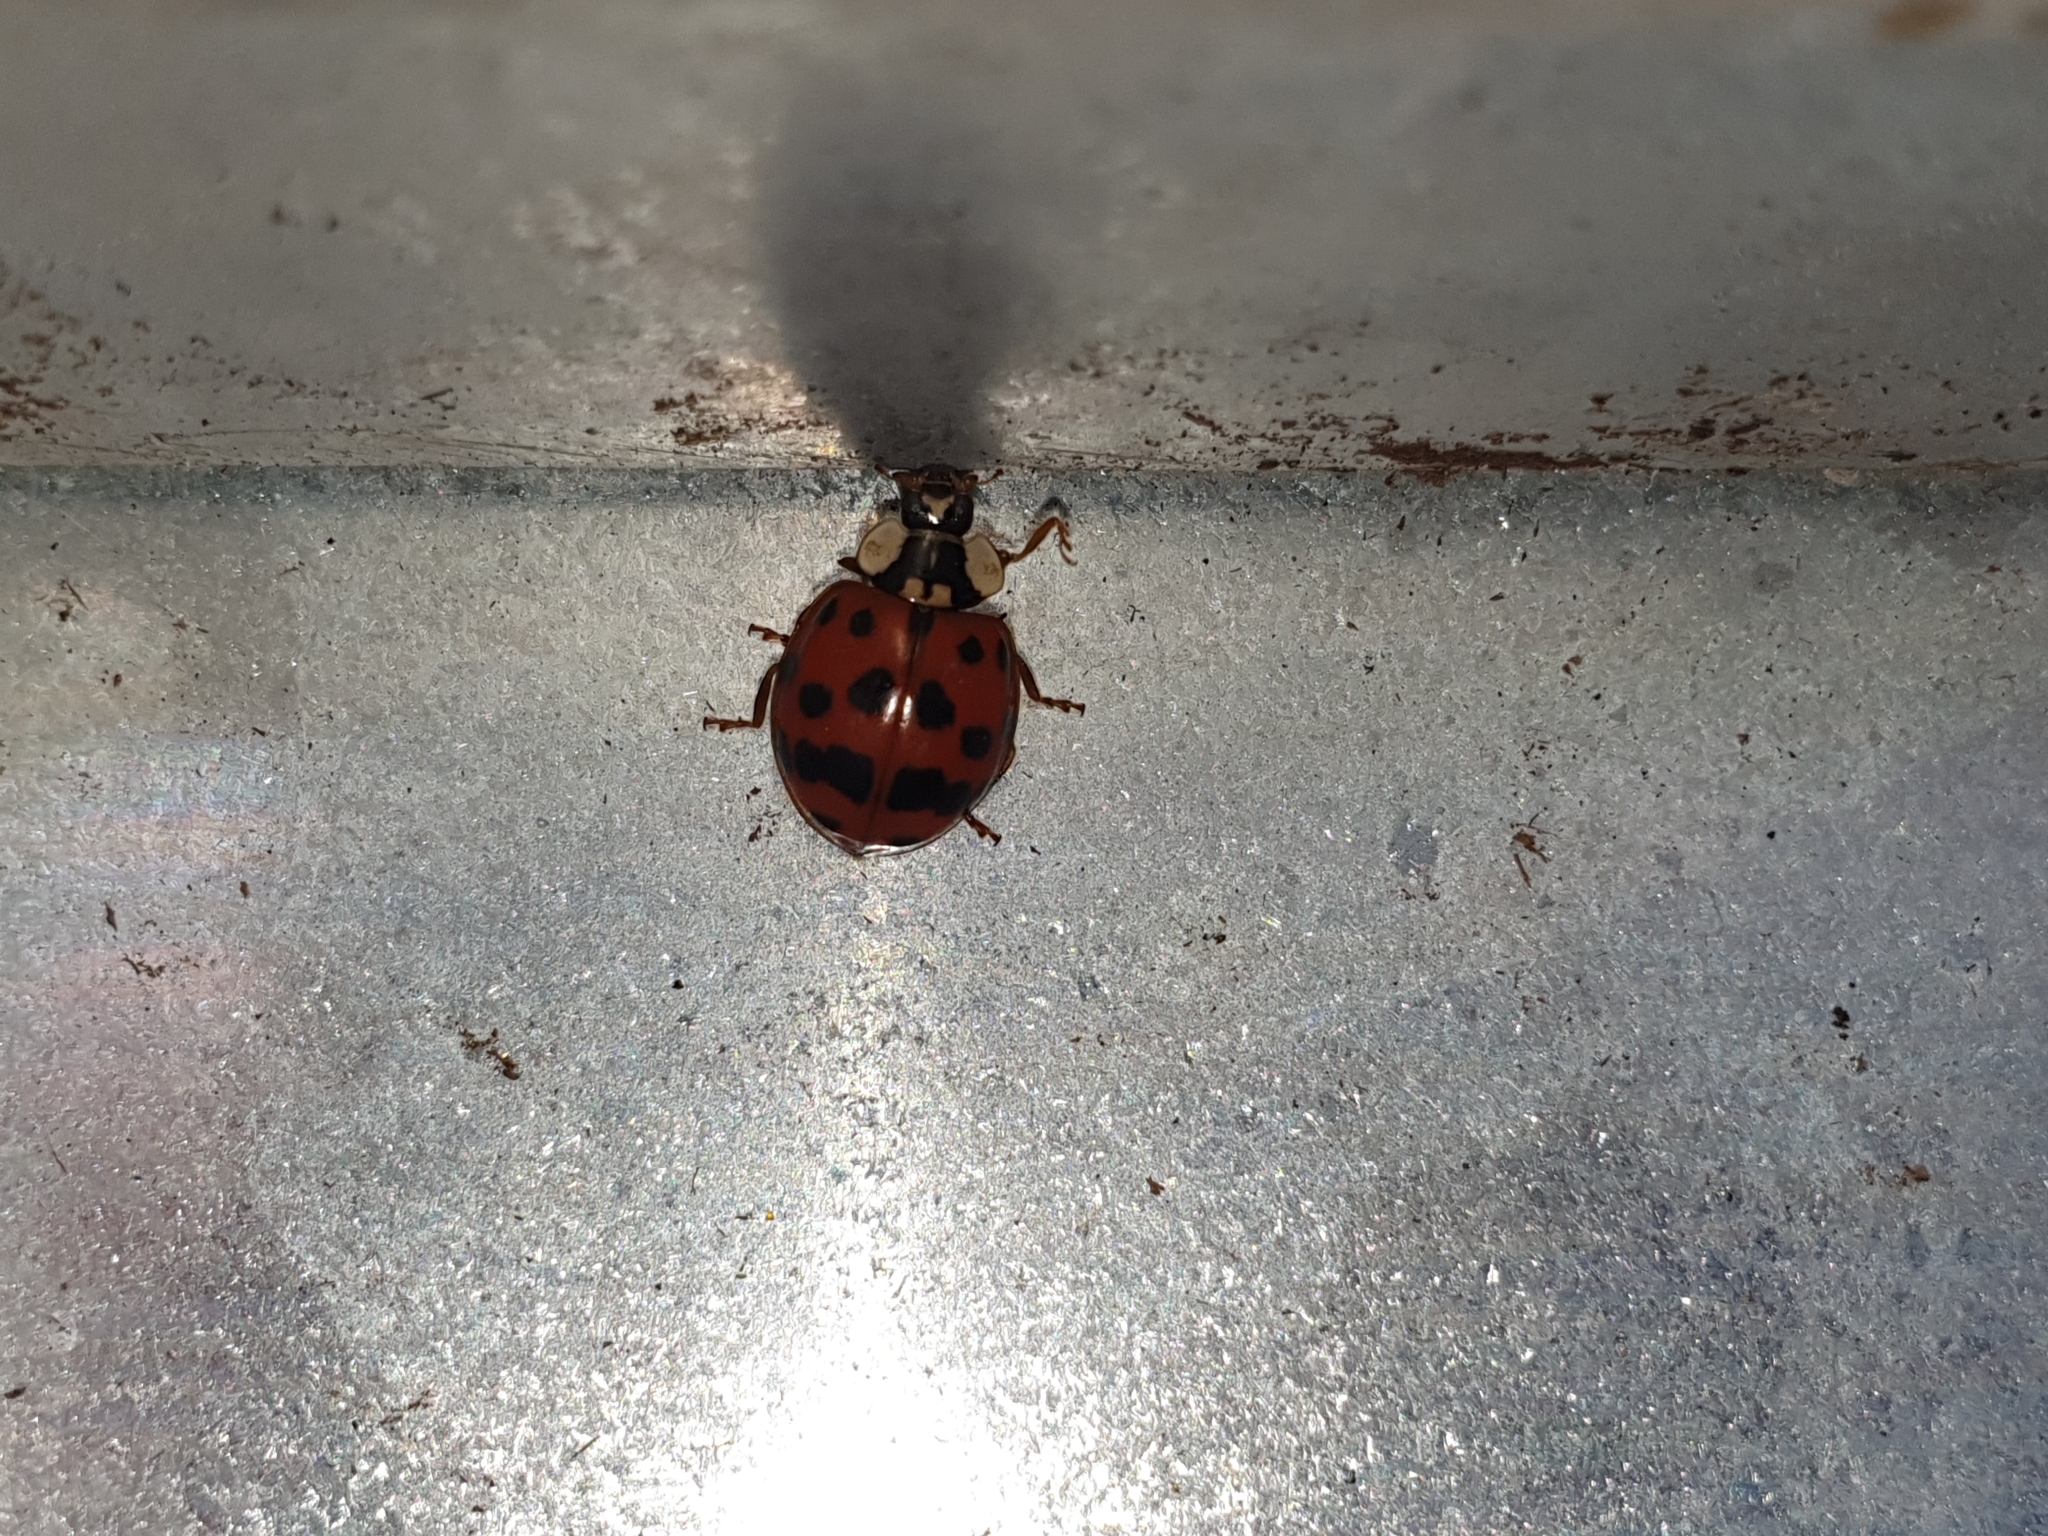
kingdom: Animalia
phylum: Arthropoda
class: Insecta
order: Coleoptera
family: Coccinellidae
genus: Harmonia
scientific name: Harmonia axyridis
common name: Harlequin ladybird
